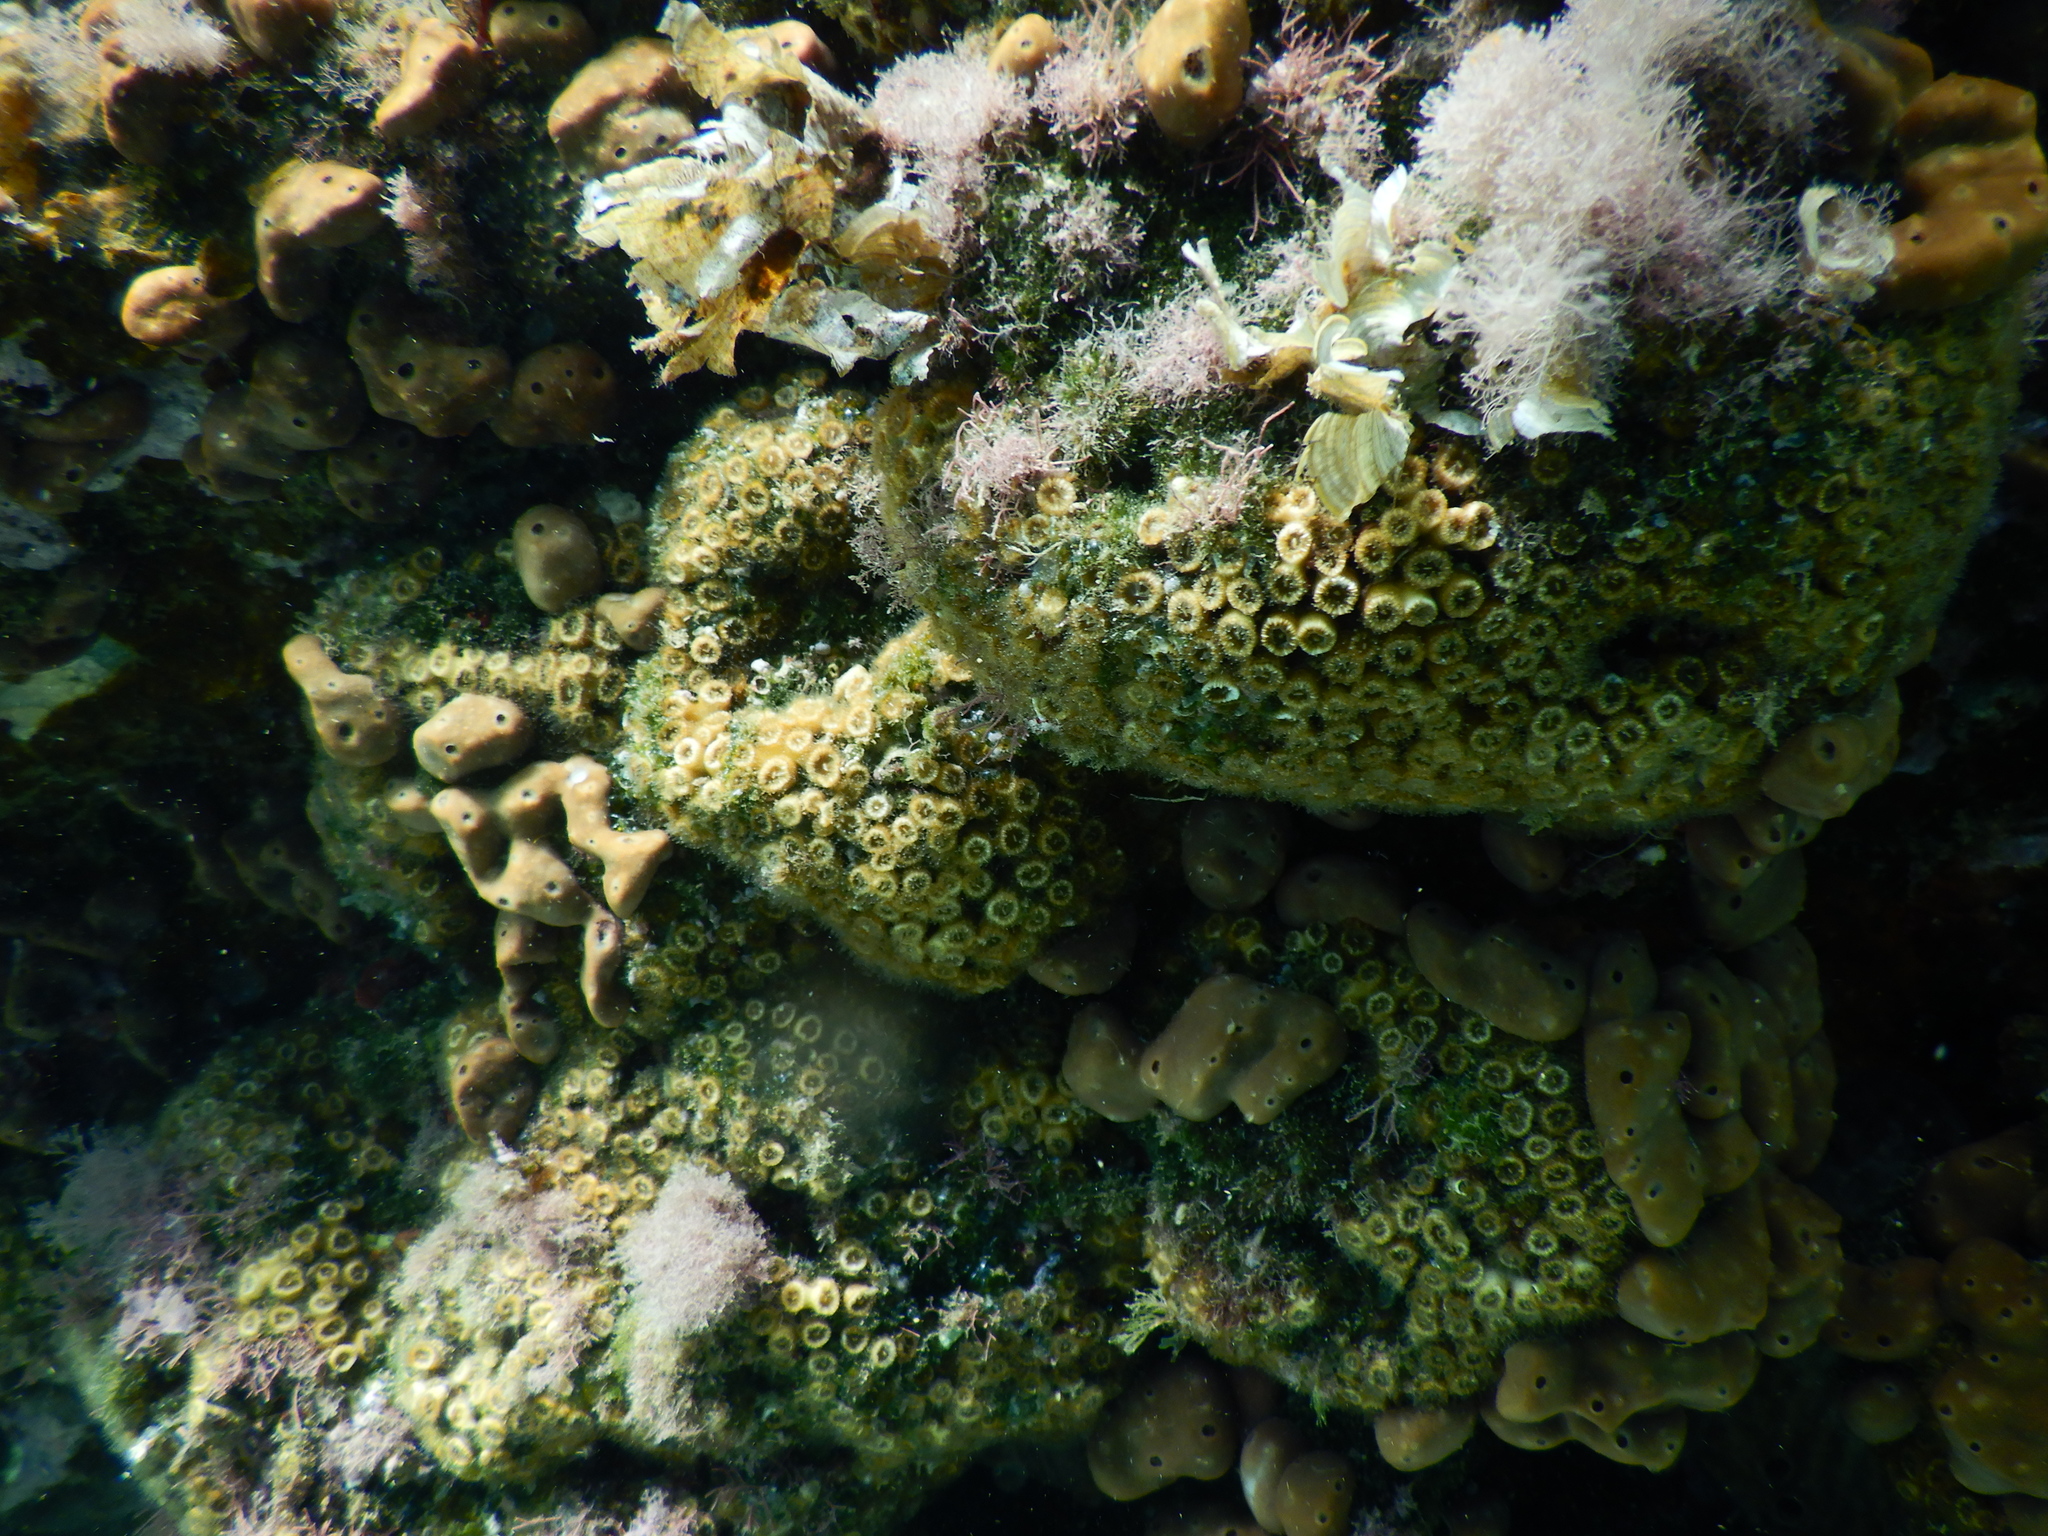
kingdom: Animalia
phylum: Cnidaria
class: Anthozoa
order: Scleractinia
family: Cladocoridae
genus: Cladocora
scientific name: Cladocora caespitosa
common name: Cladocora
